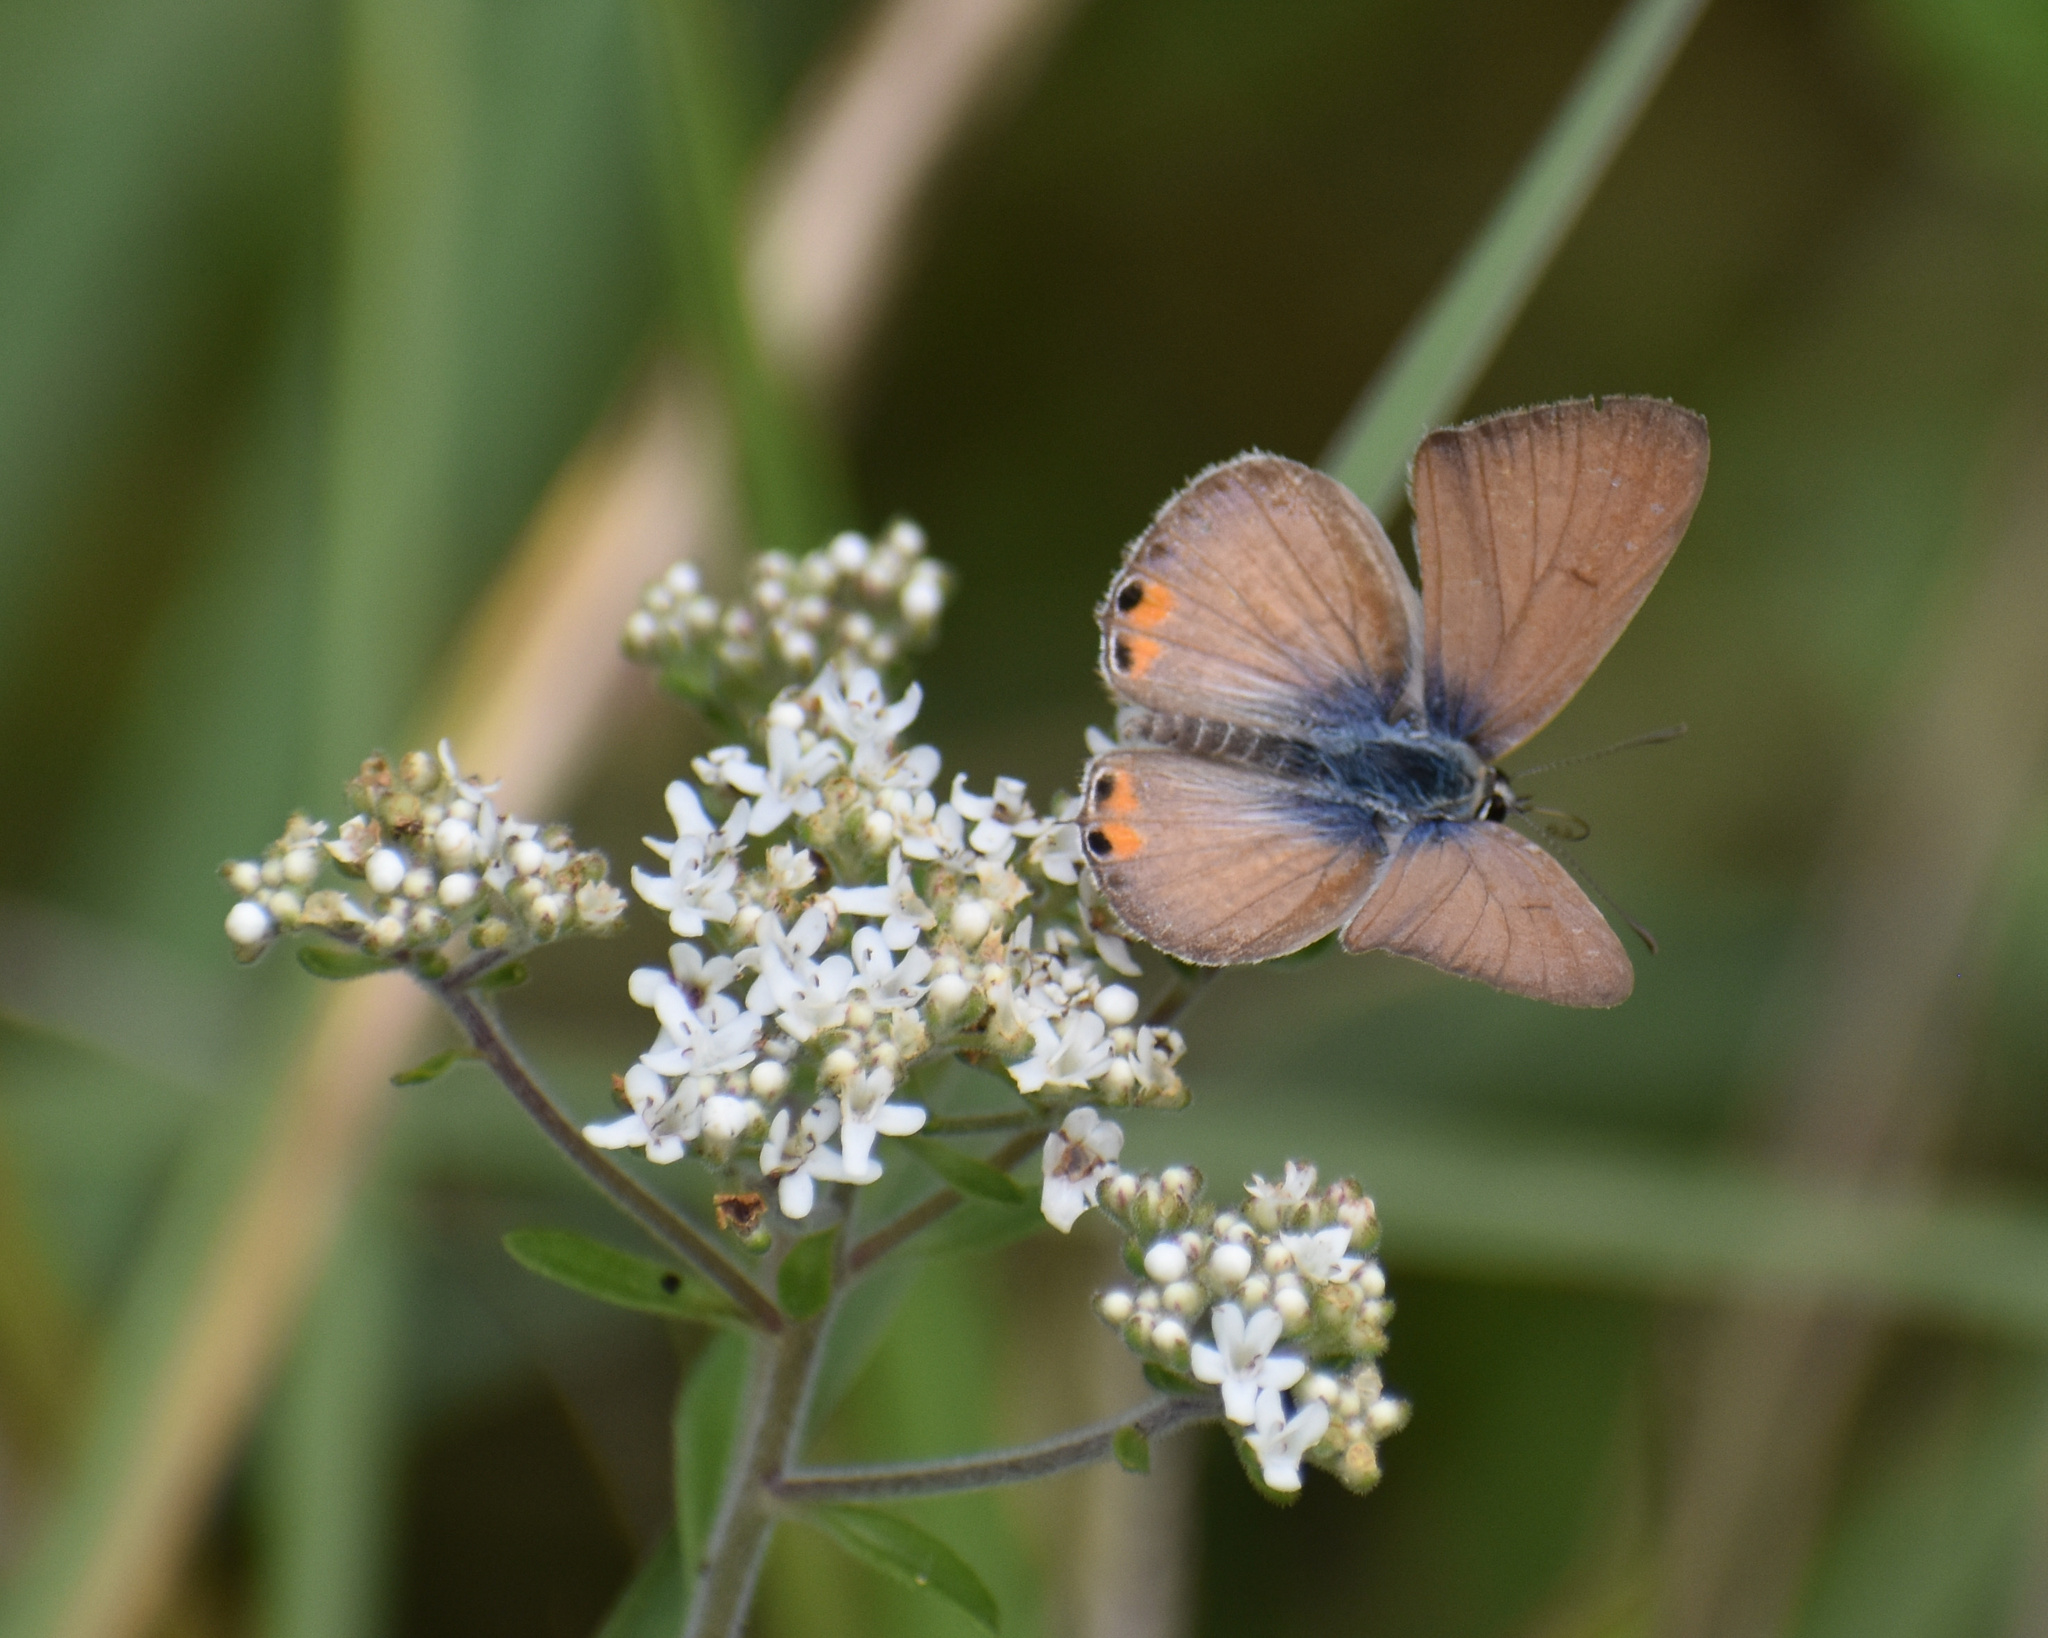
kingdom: Animalia
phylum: Arthropoda
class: Insecta
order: Lepidoptera
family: Lycaenidae
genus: Euchrysops
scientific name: Euchrysops osiris
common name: African blue
